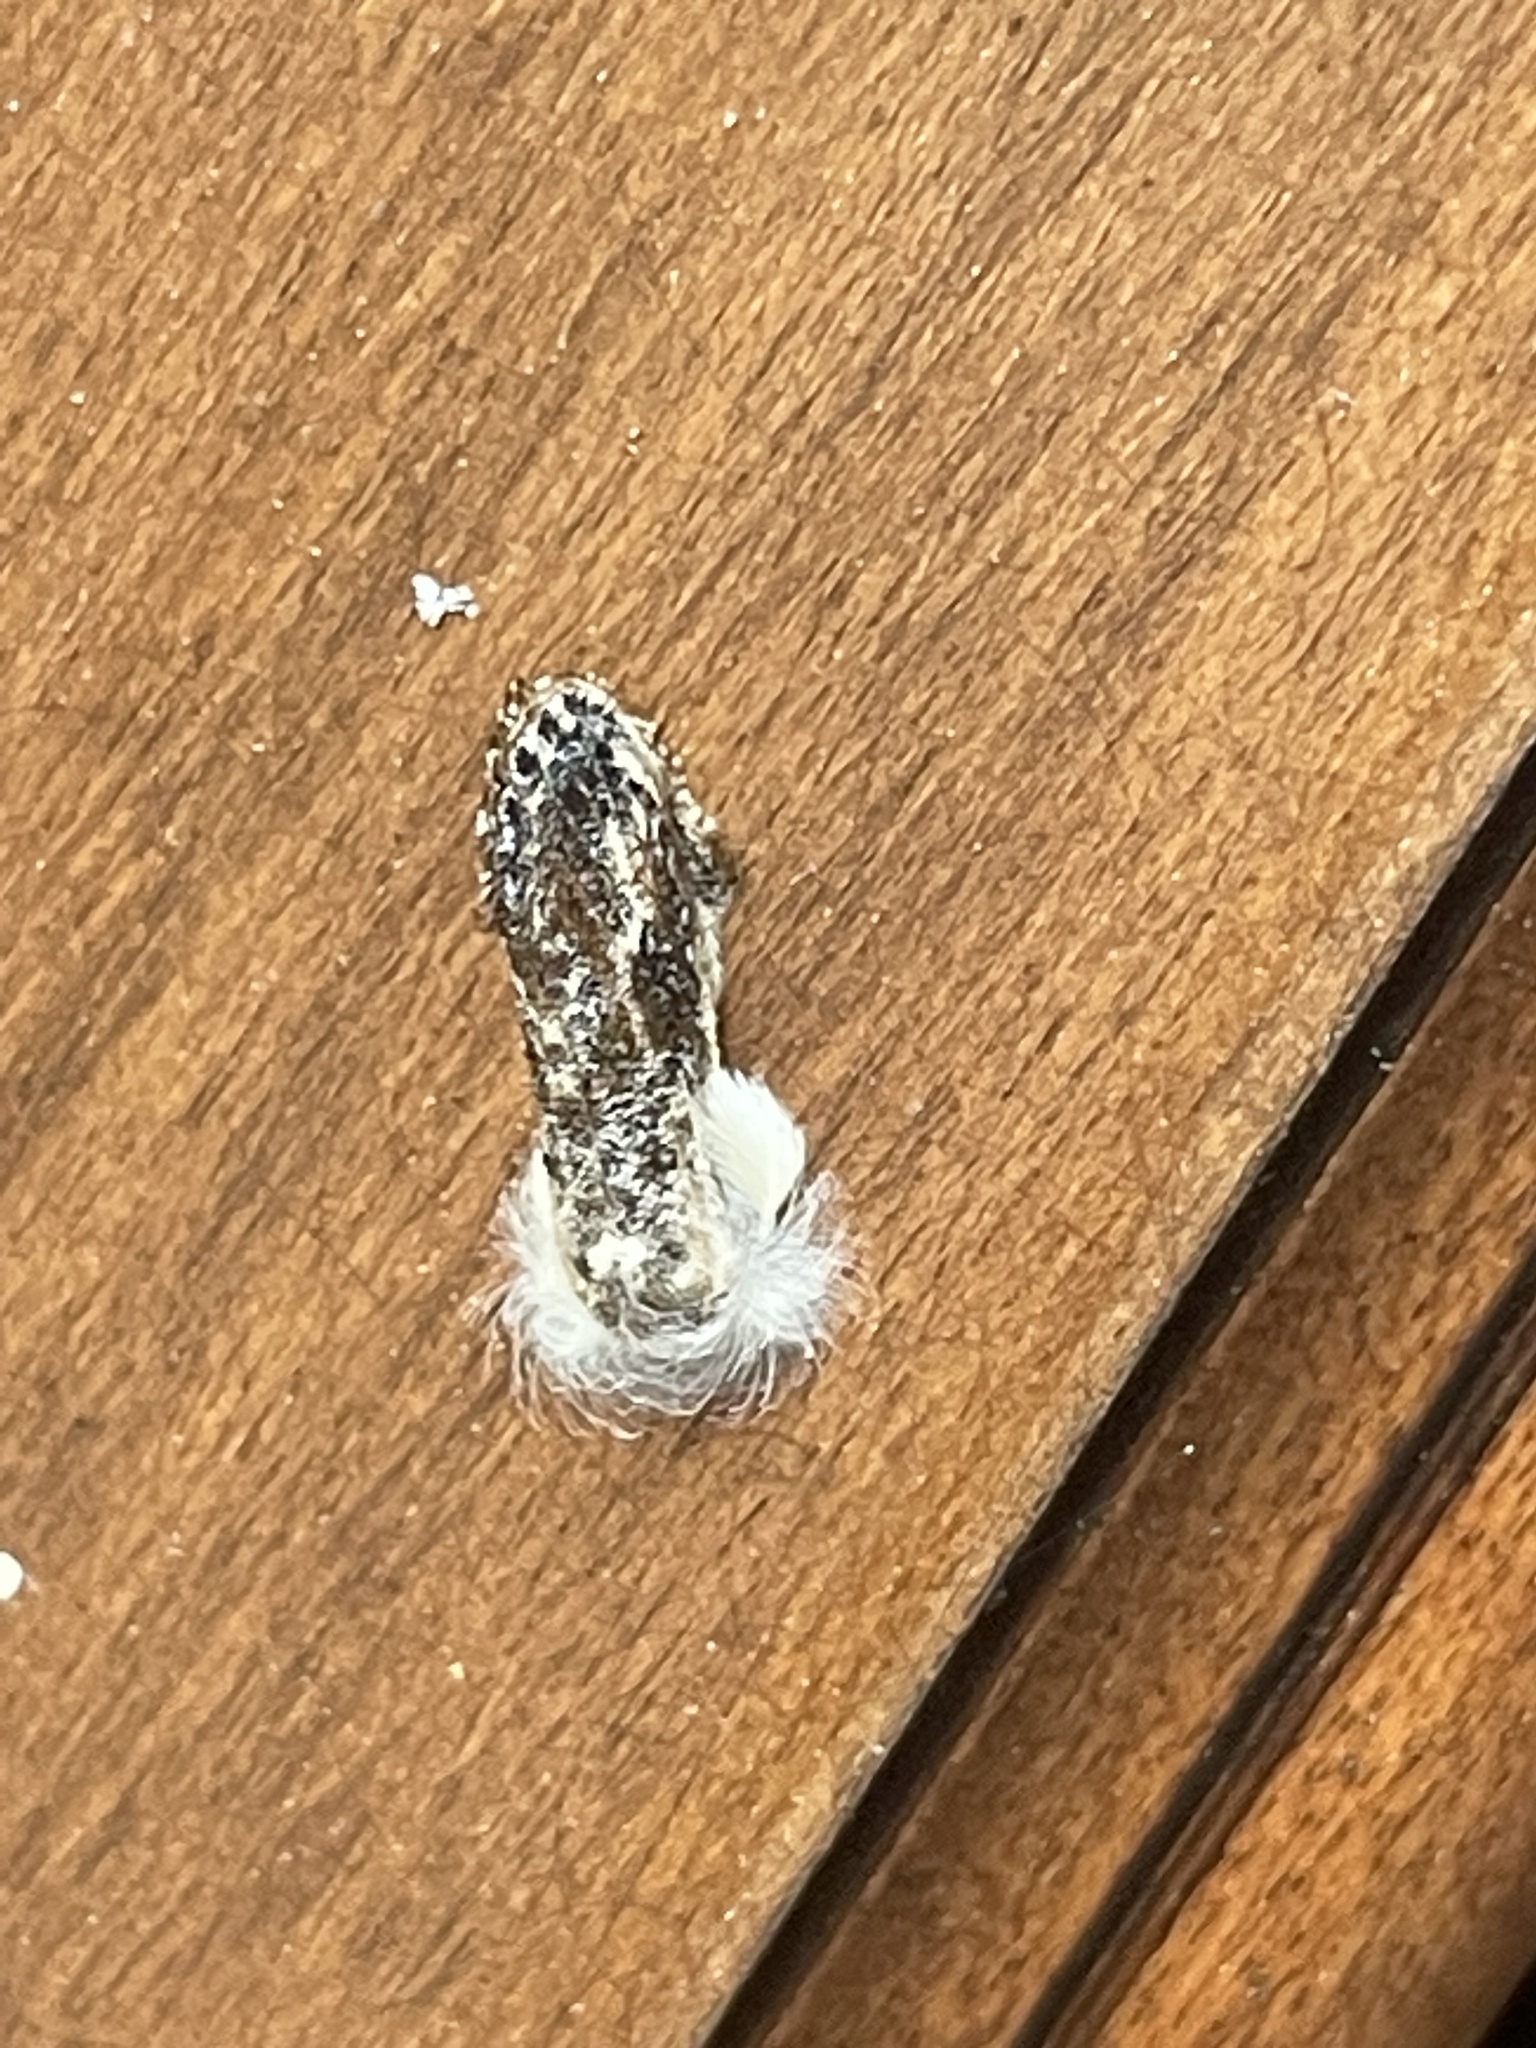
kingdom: Animalia
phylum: Arthropoda
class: Insecta
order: Lepidoptera
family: Tineidae
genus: Acrolophus
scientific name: Acrolophus mycetophagus
